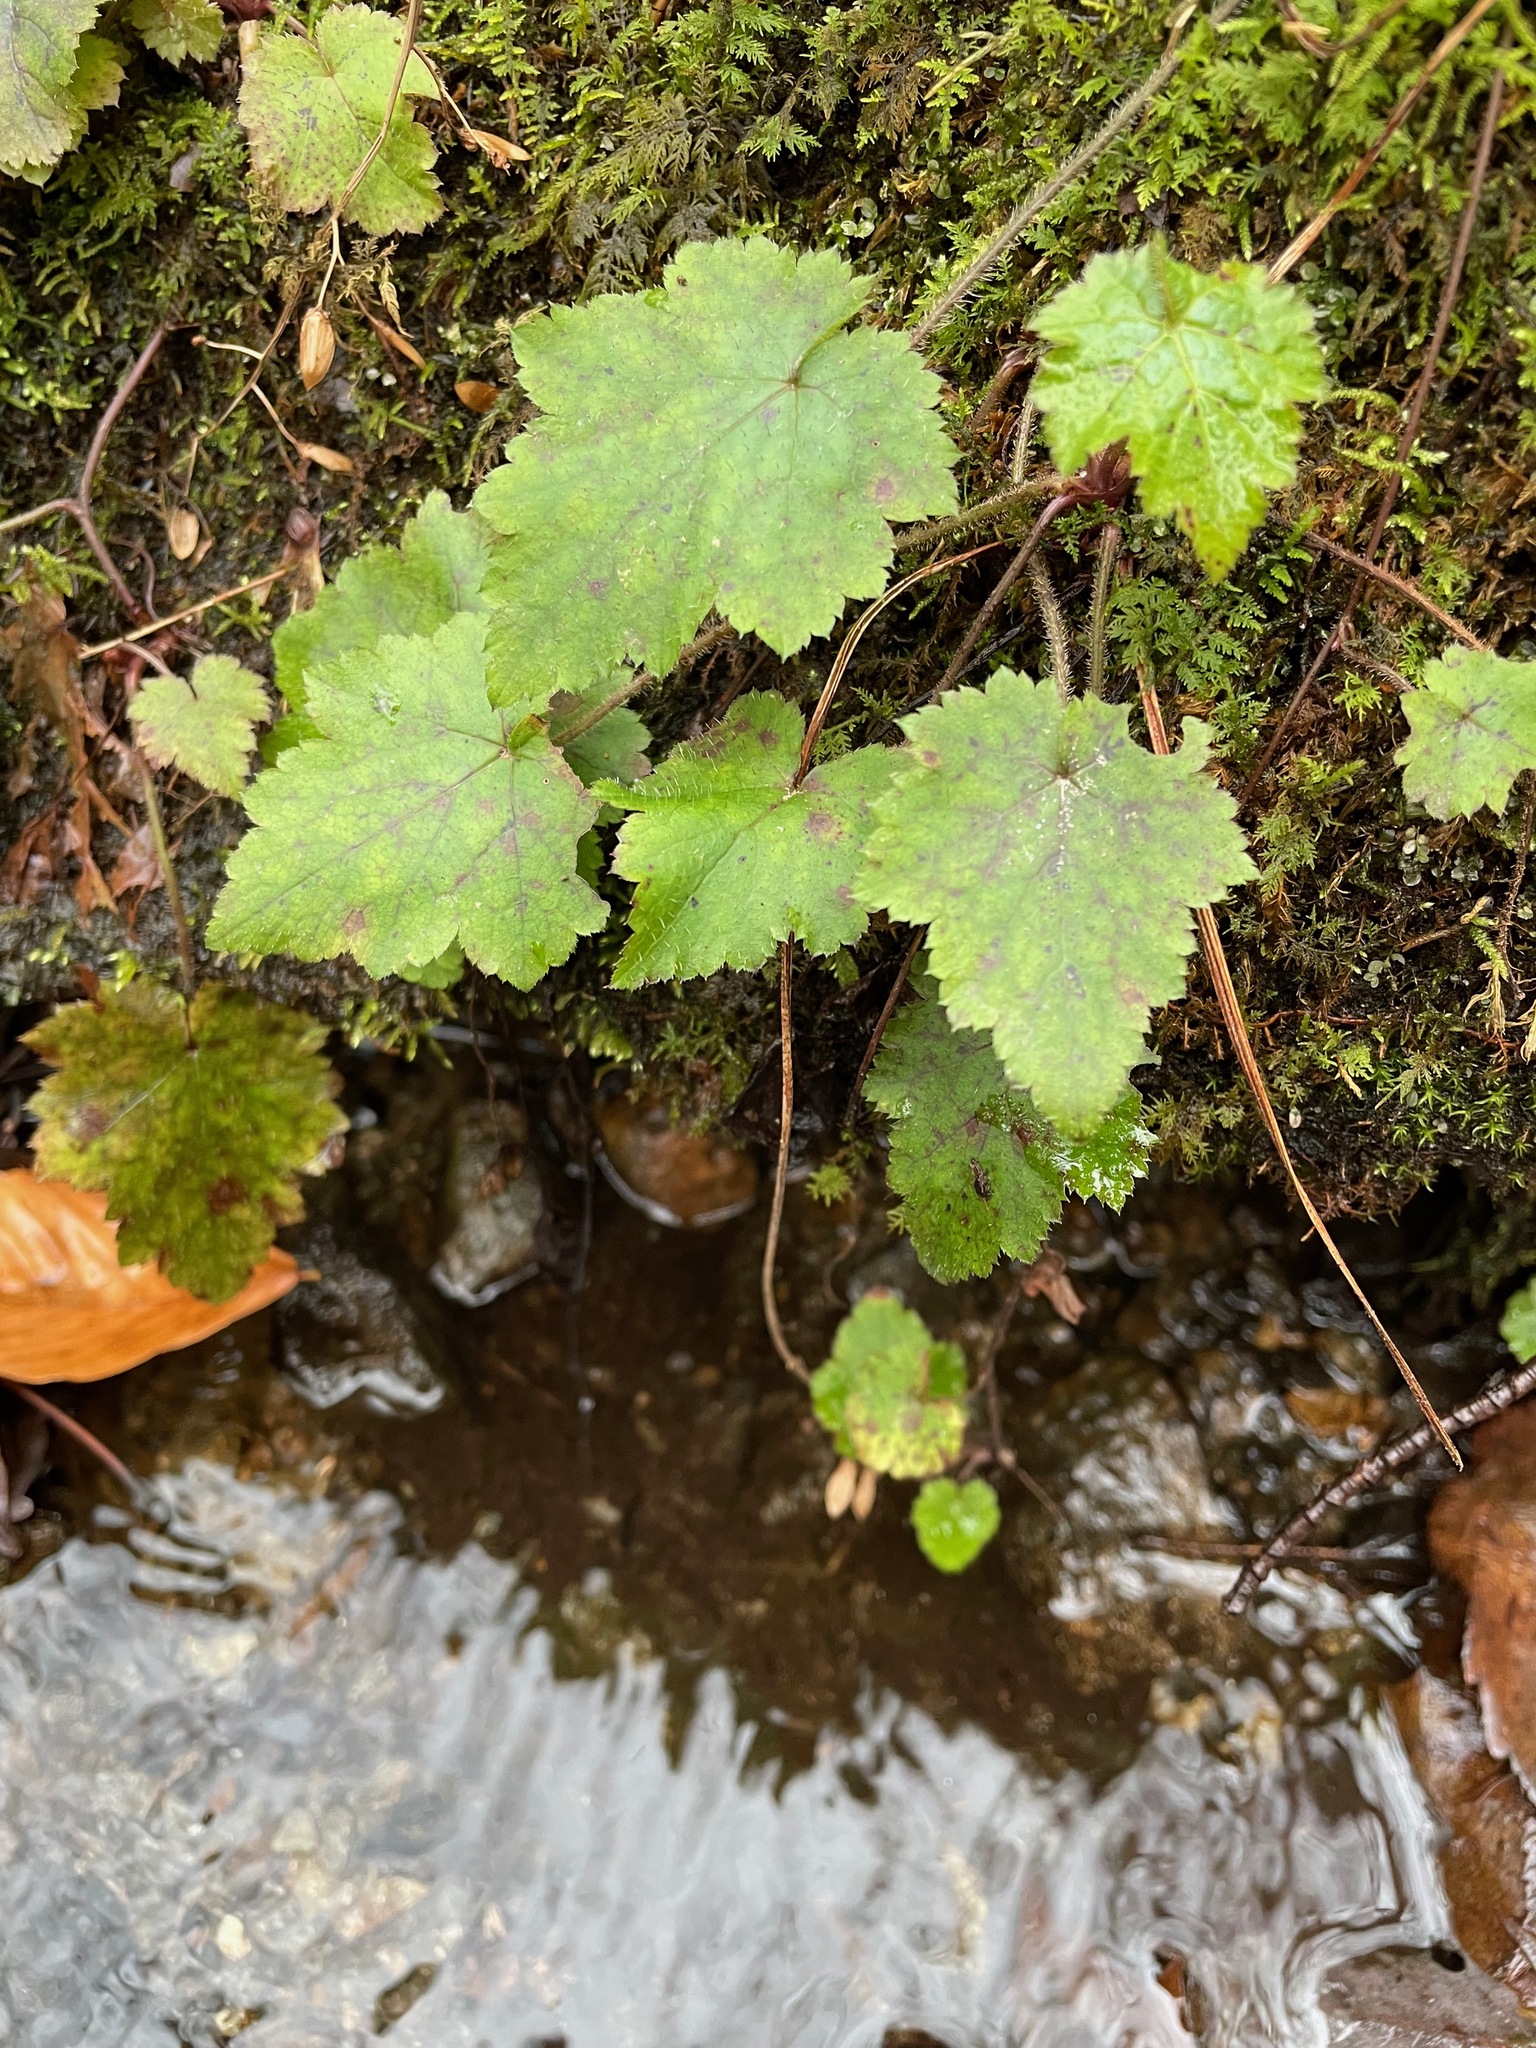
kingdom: Plantae
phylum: Tracheophyta
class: Magnoliopsida
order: Saxifragales
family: Saxifragaceae
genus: Tiarella
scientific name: Tiarella stolonifera
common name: Stoloniferous foamflower
